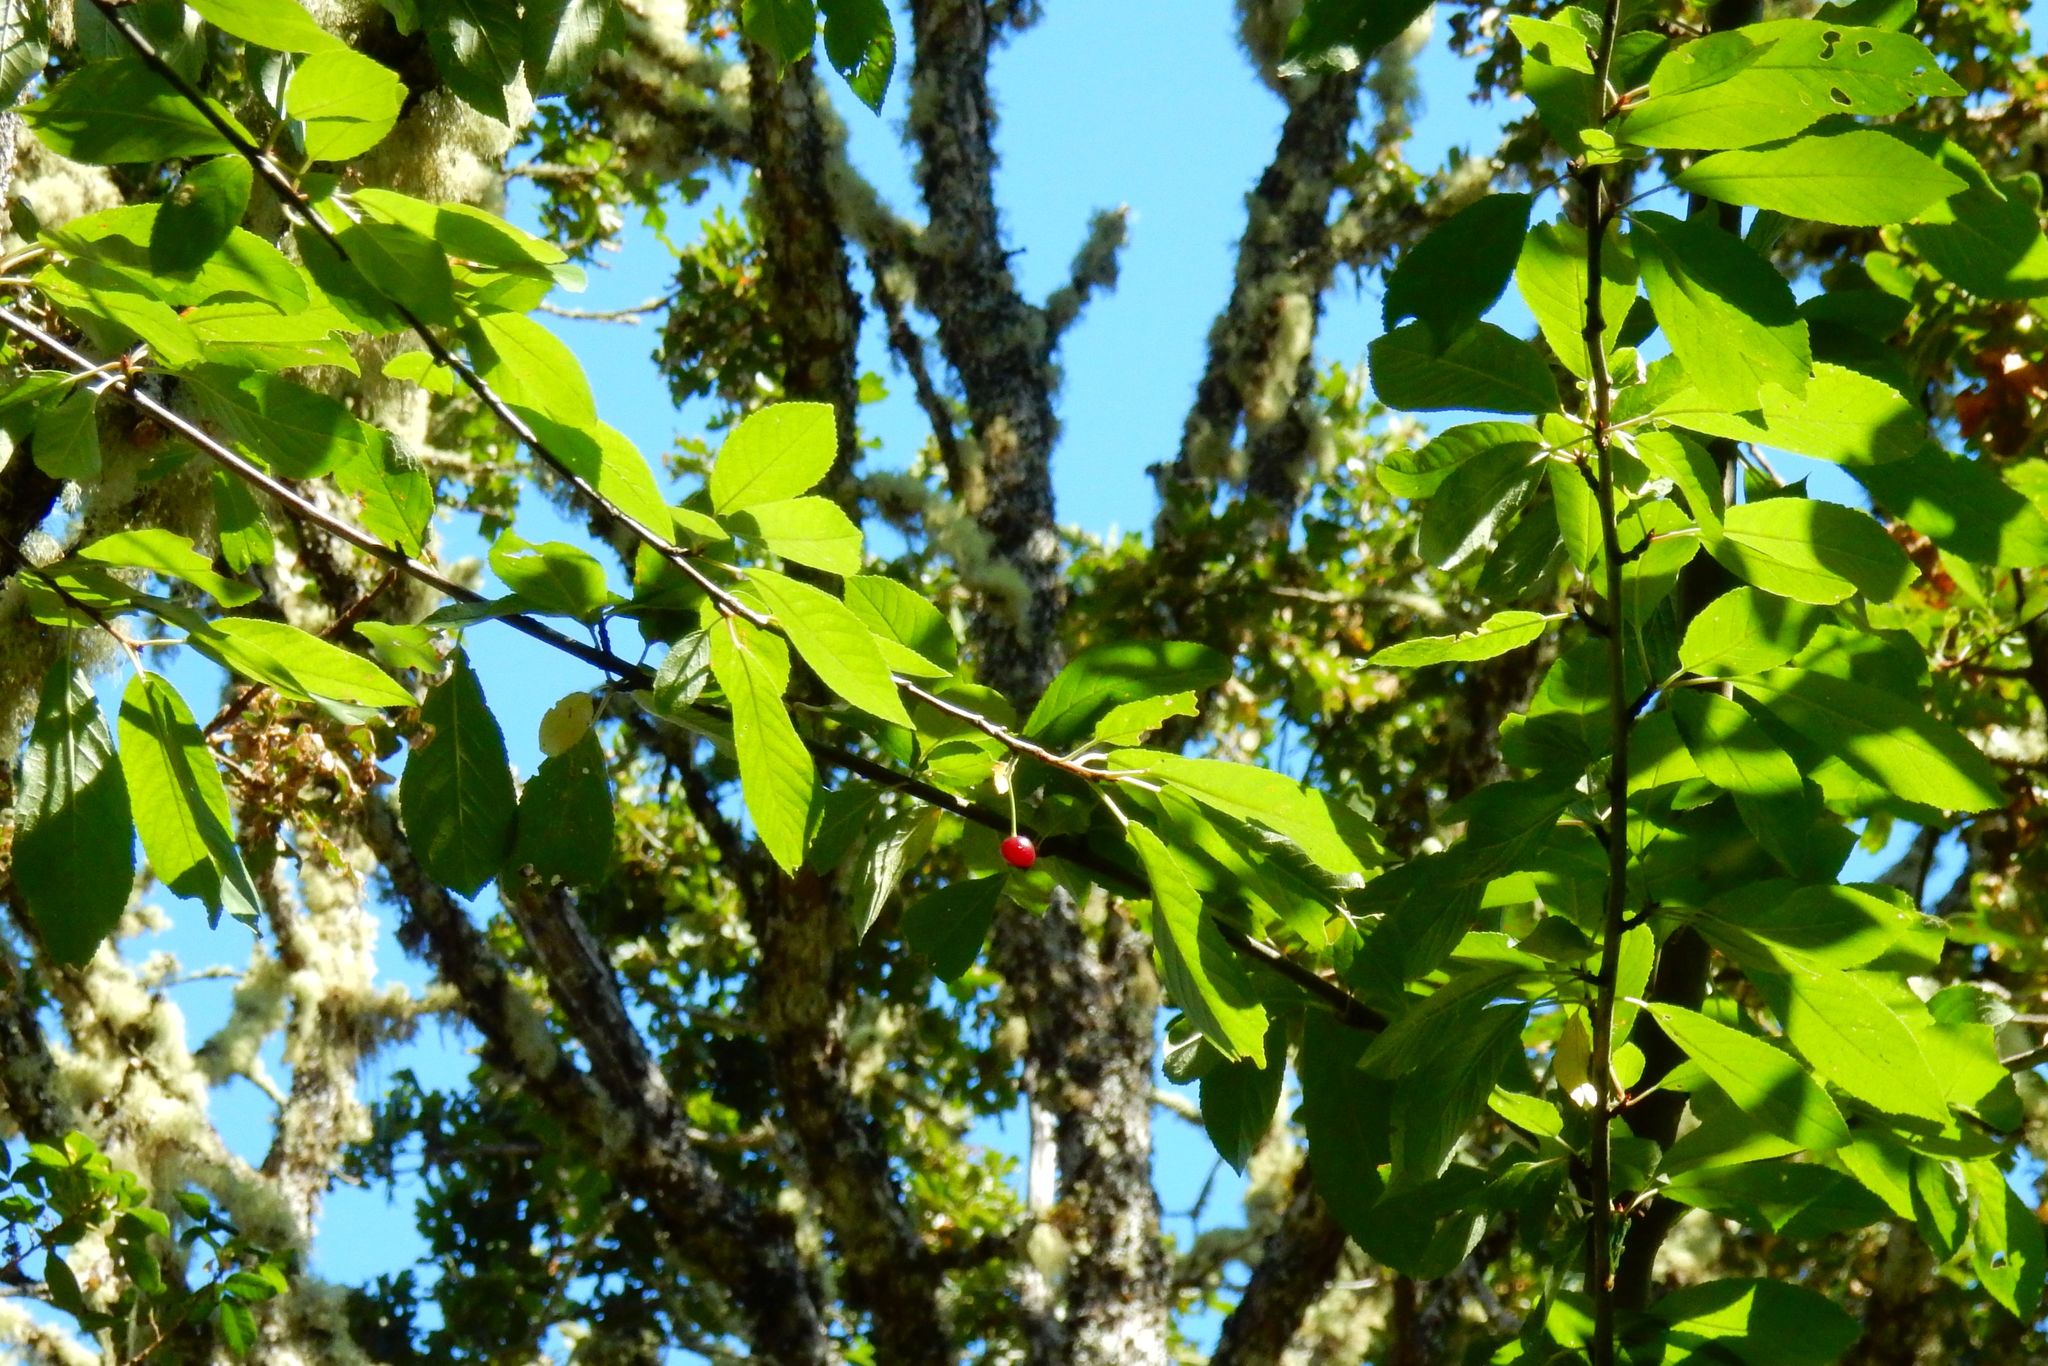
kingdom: Plantae
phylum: Tracheophyta
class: Magnoliopsida
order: Rosales
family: Rosaceae
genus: Prunus
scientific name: Prunus emarginata
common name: Bitter cherry
